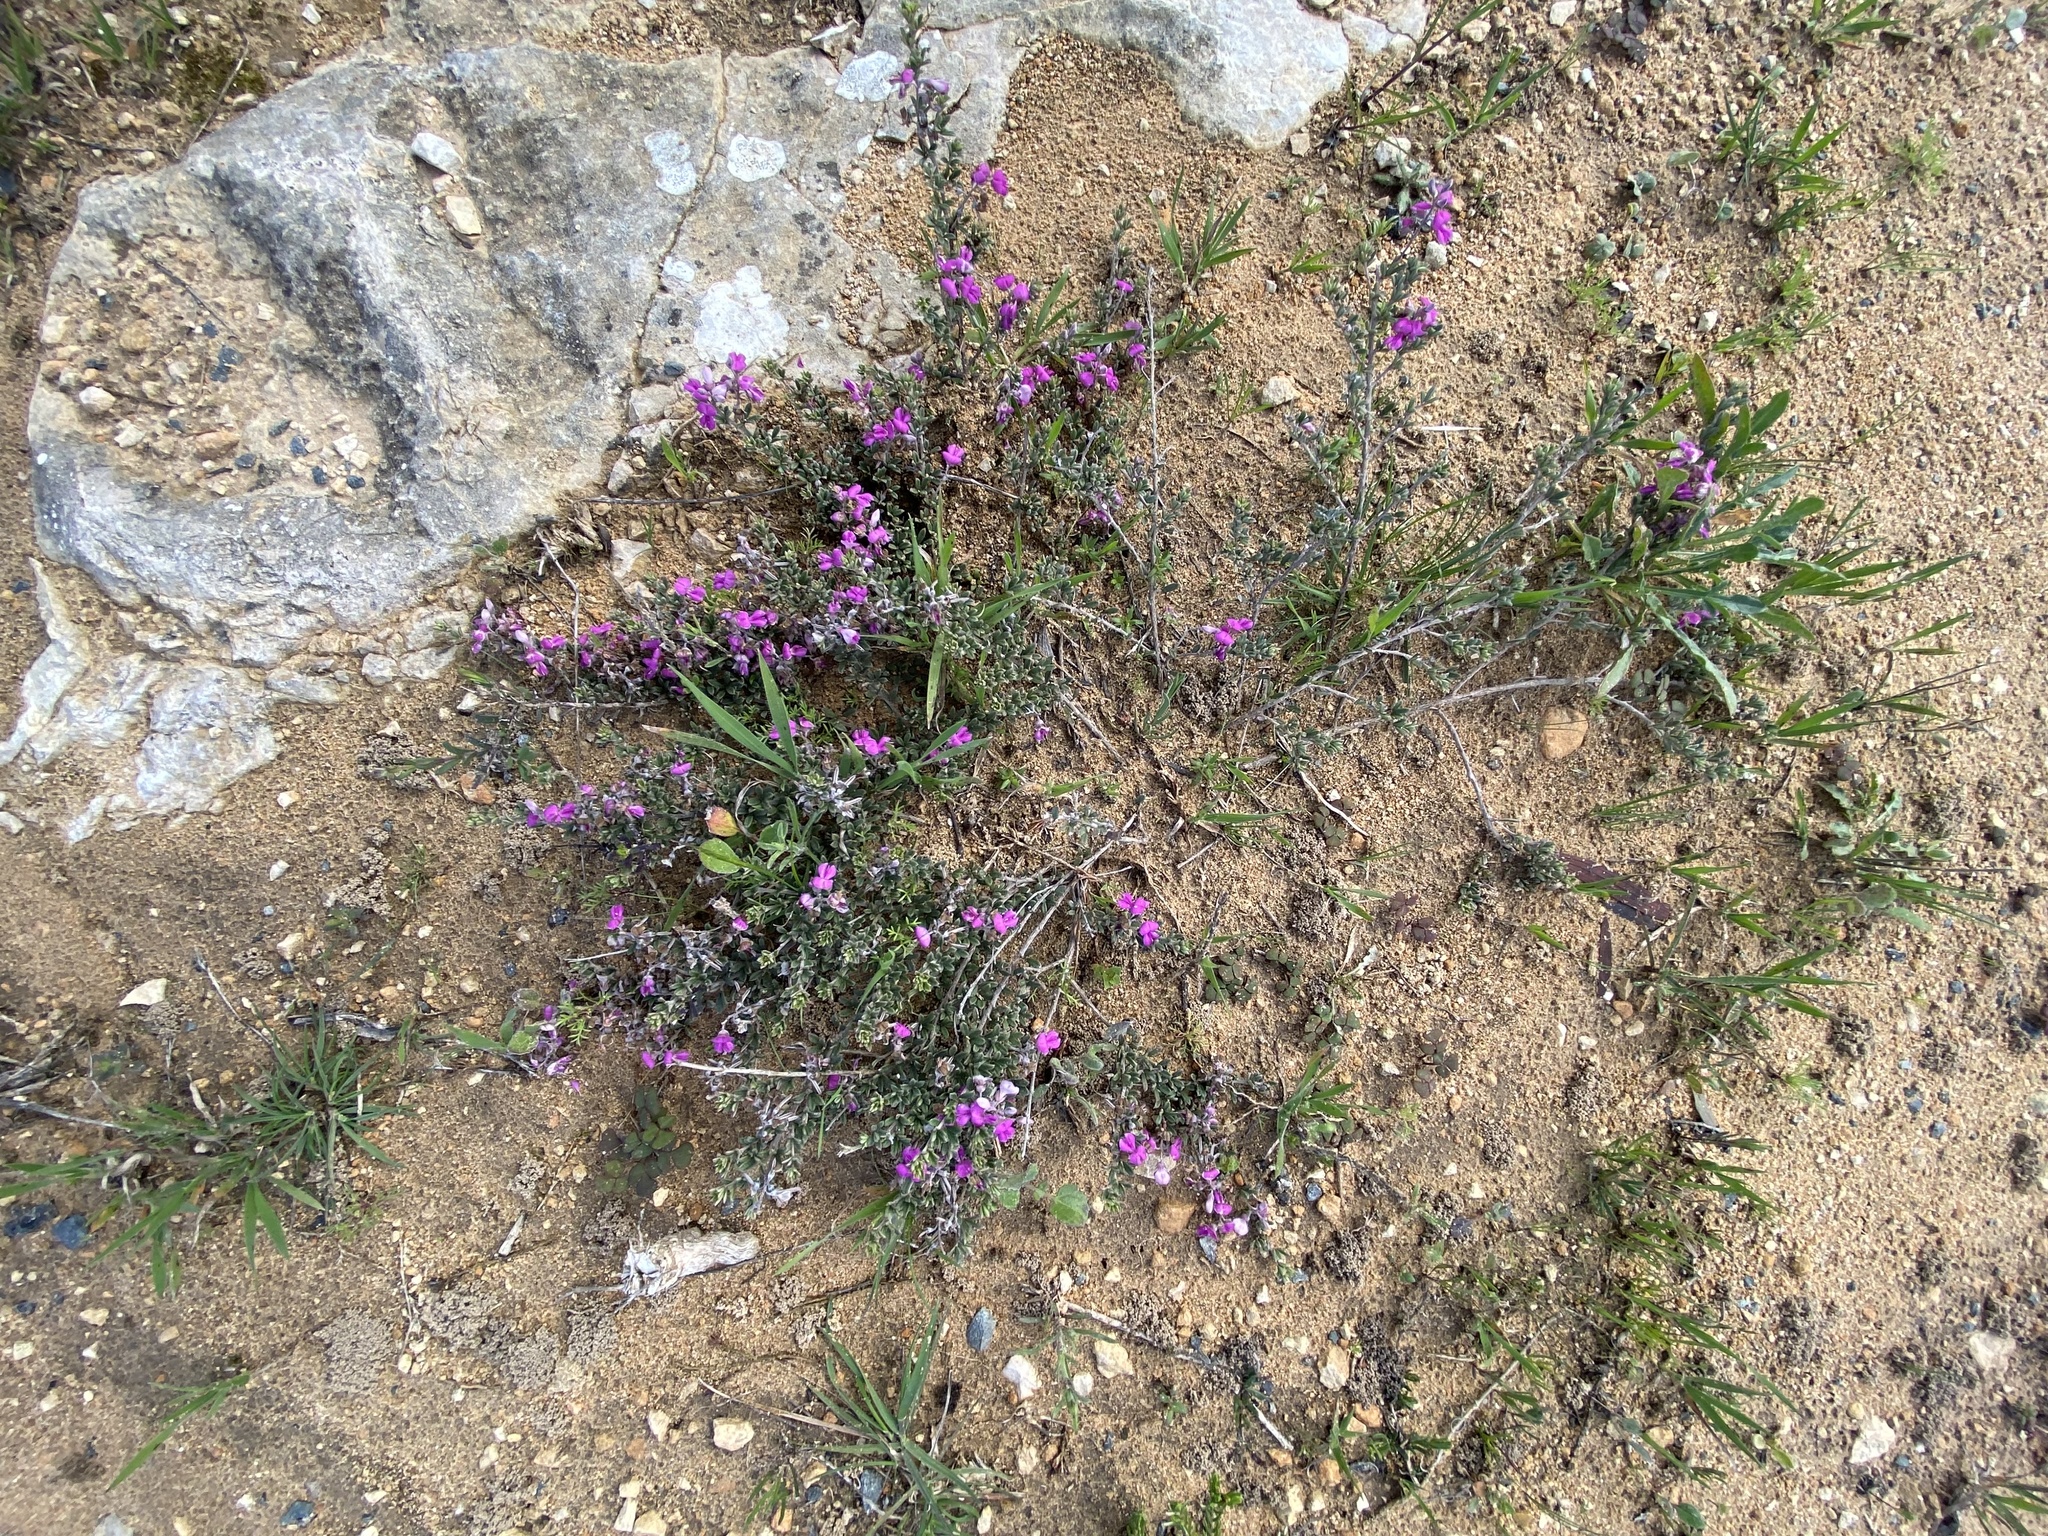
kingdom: Plantae
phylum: Tracheophyta
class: Magnoliopsida
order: Fabales
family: Fabaceae
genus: Indigofera
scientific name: Indigofera
